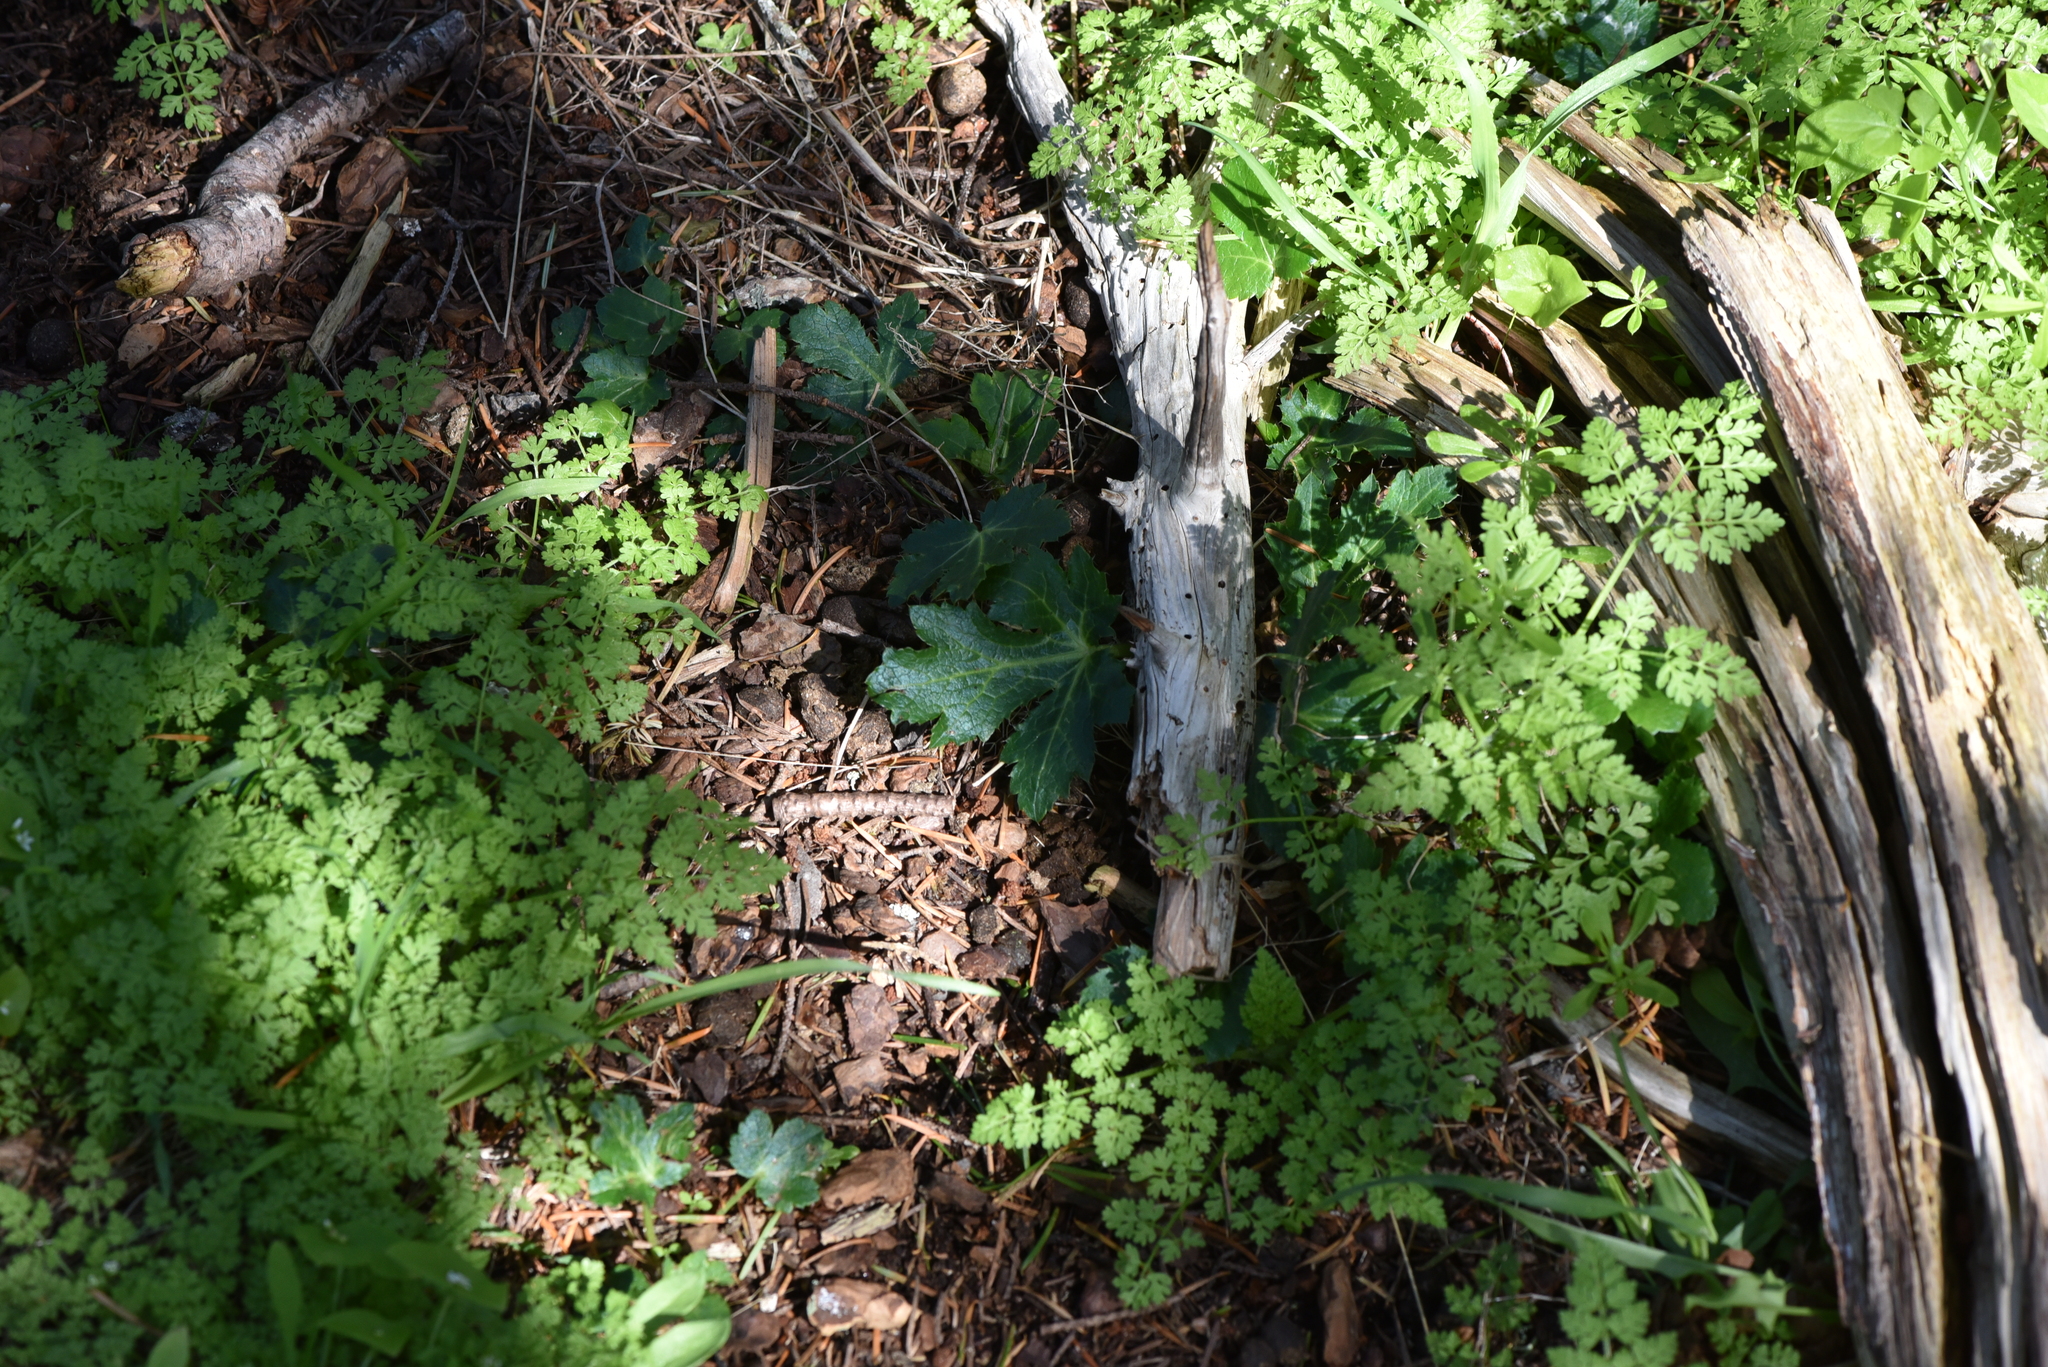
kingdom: Plantae
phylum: Tracheophyta
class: Magnoliopsida
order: Apiales
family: Apiaceae
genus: Sanicula
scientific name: Sanicula crassicaulis
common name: Western snakeroot
